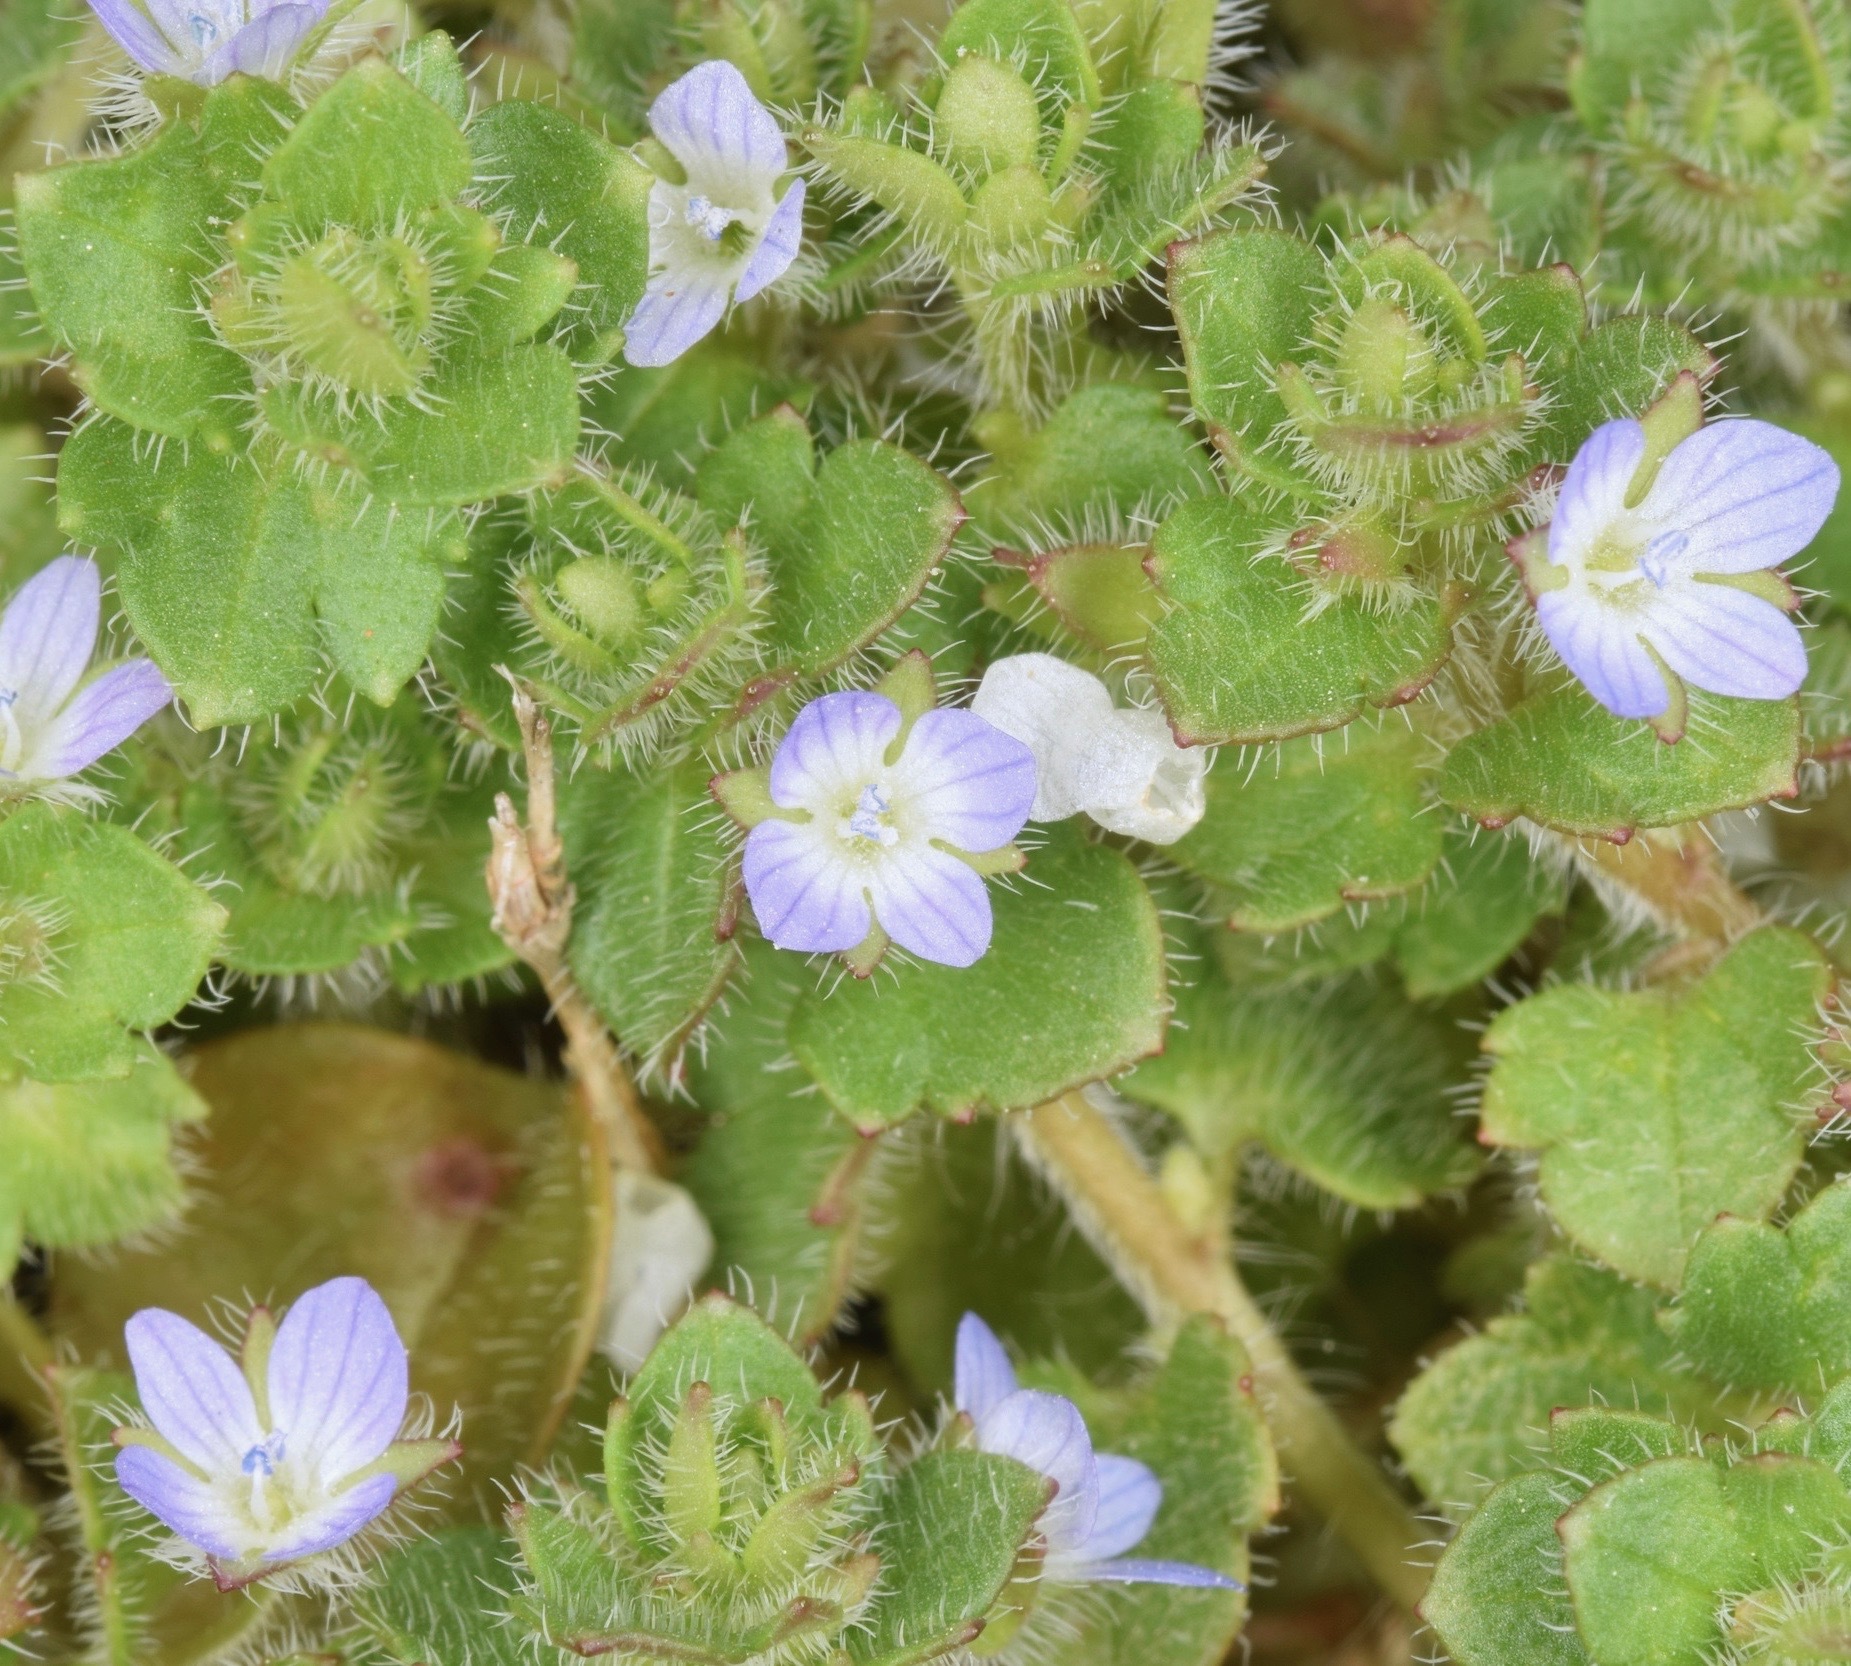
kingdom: Plantae
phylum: Tracheophyta
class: Magnoliopsida
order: Lamiales
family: Plantaginaceae
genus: Veronica
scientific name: Veronica hederifolia
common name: Ivy-leaved speedwell
